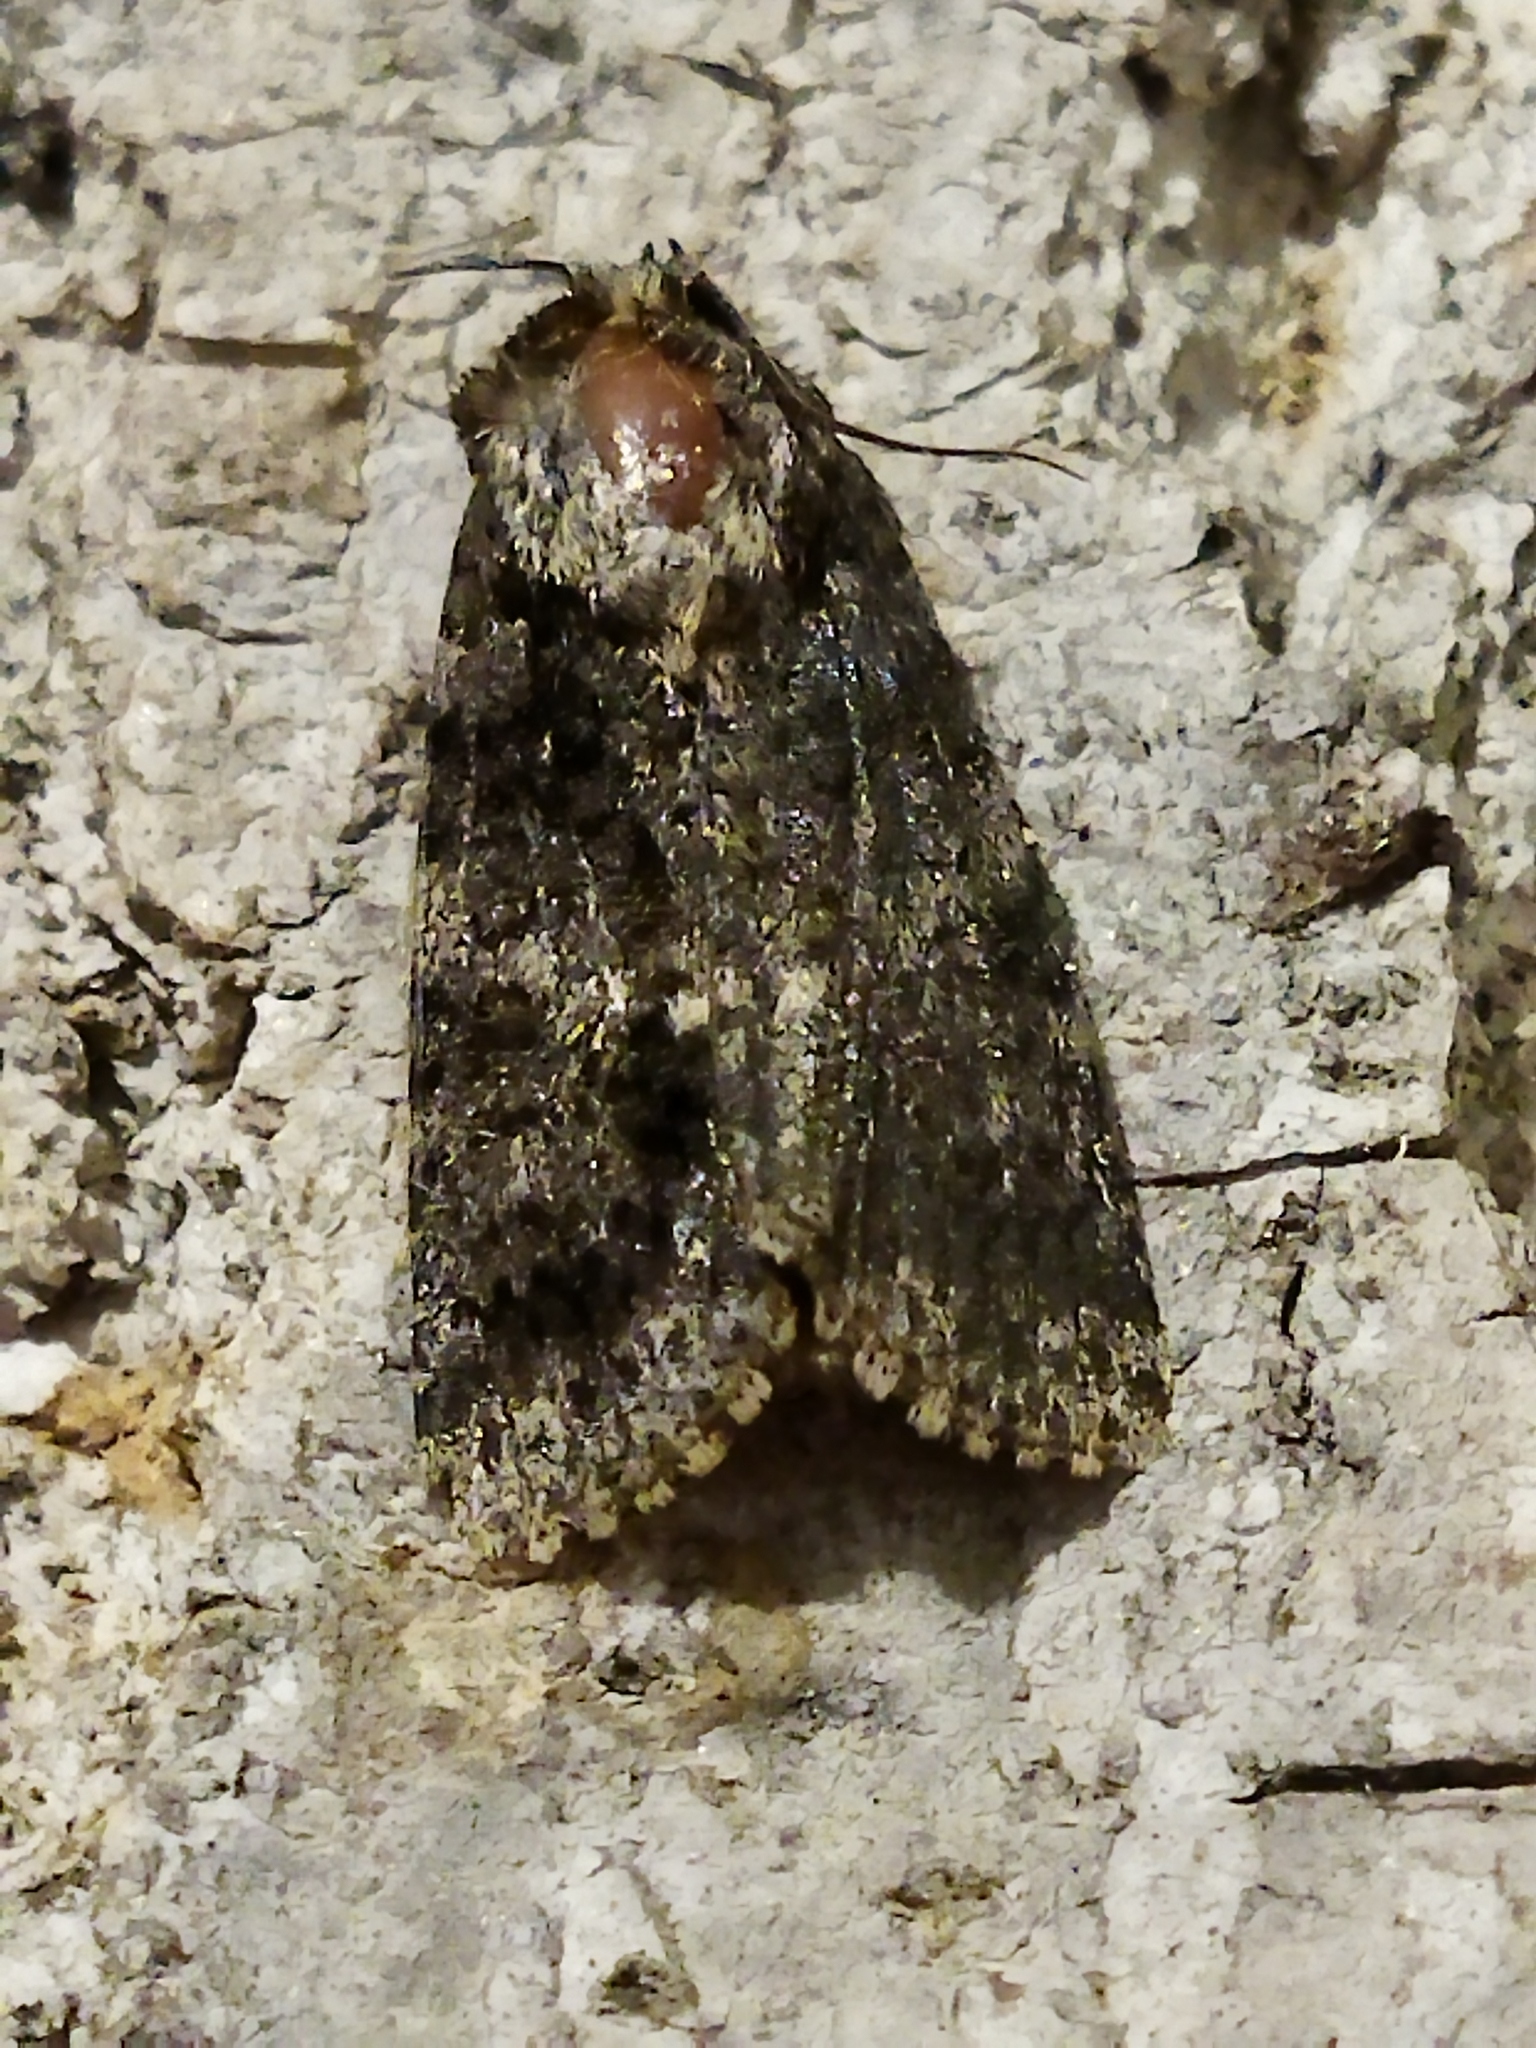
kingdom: Animalia
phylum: Arthropoda
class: Insecta
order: Lepidoptera
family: Noctuidae
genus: Acronicta
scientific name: Acronicta rumicis
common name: Knot grass
